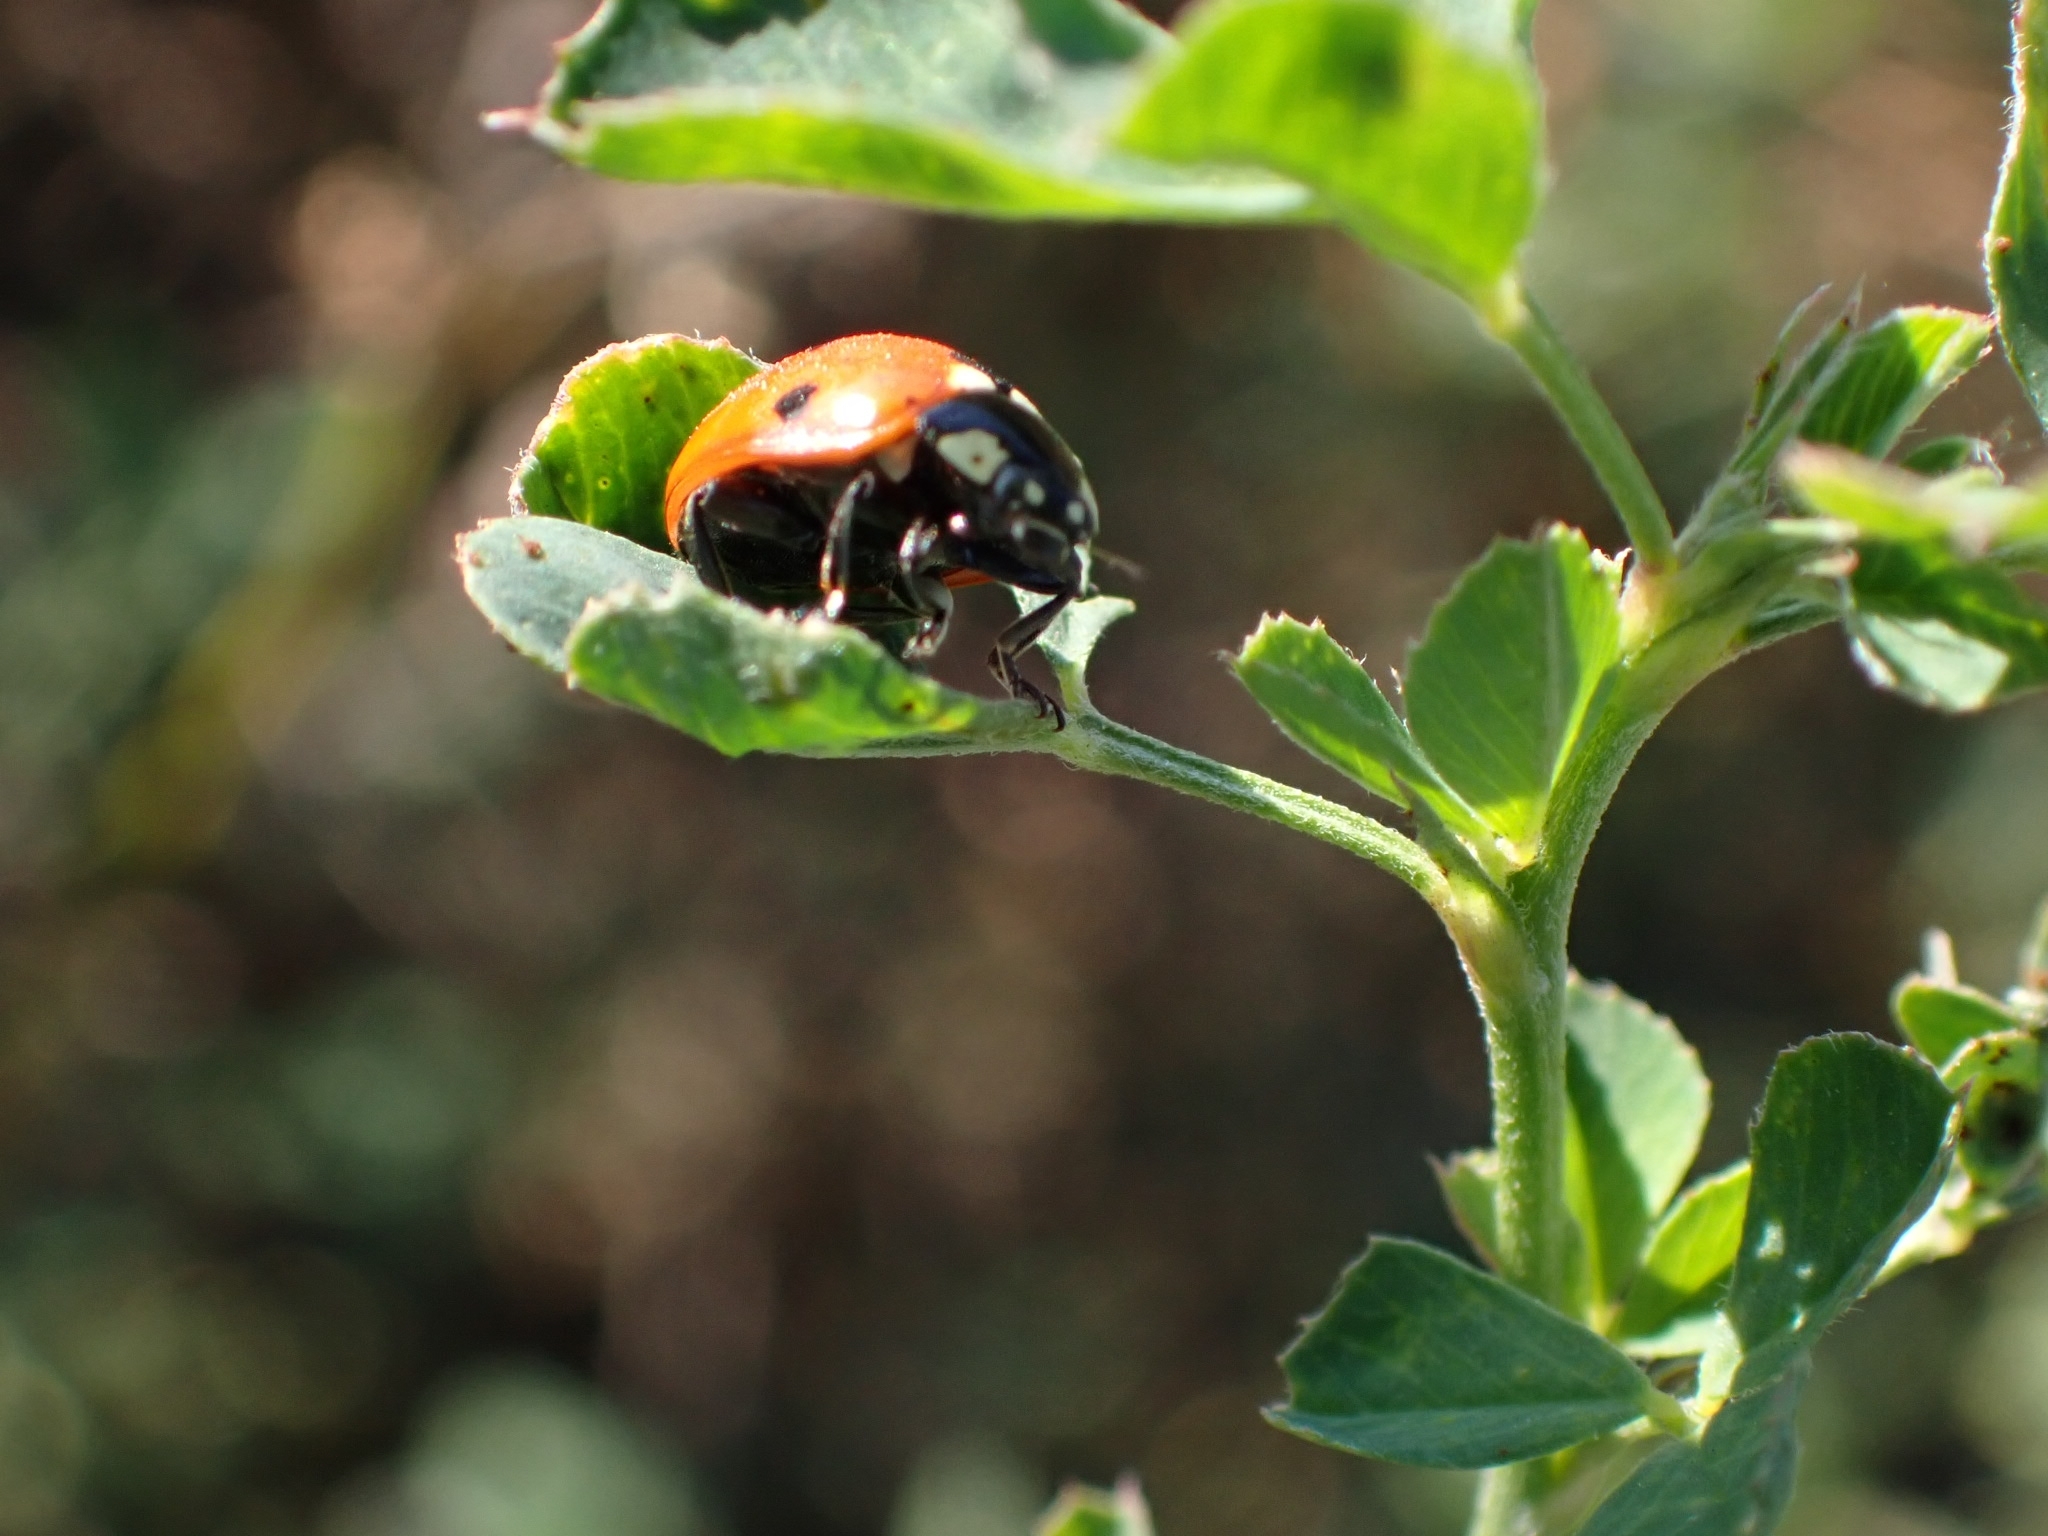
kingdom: Animalia
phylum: Arthropoda
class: Insecta
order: Coleoptera
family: Coccinellidae
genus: Coccinella
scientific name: Coccinella septempunctata
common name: Sevenspotted lady beetle
